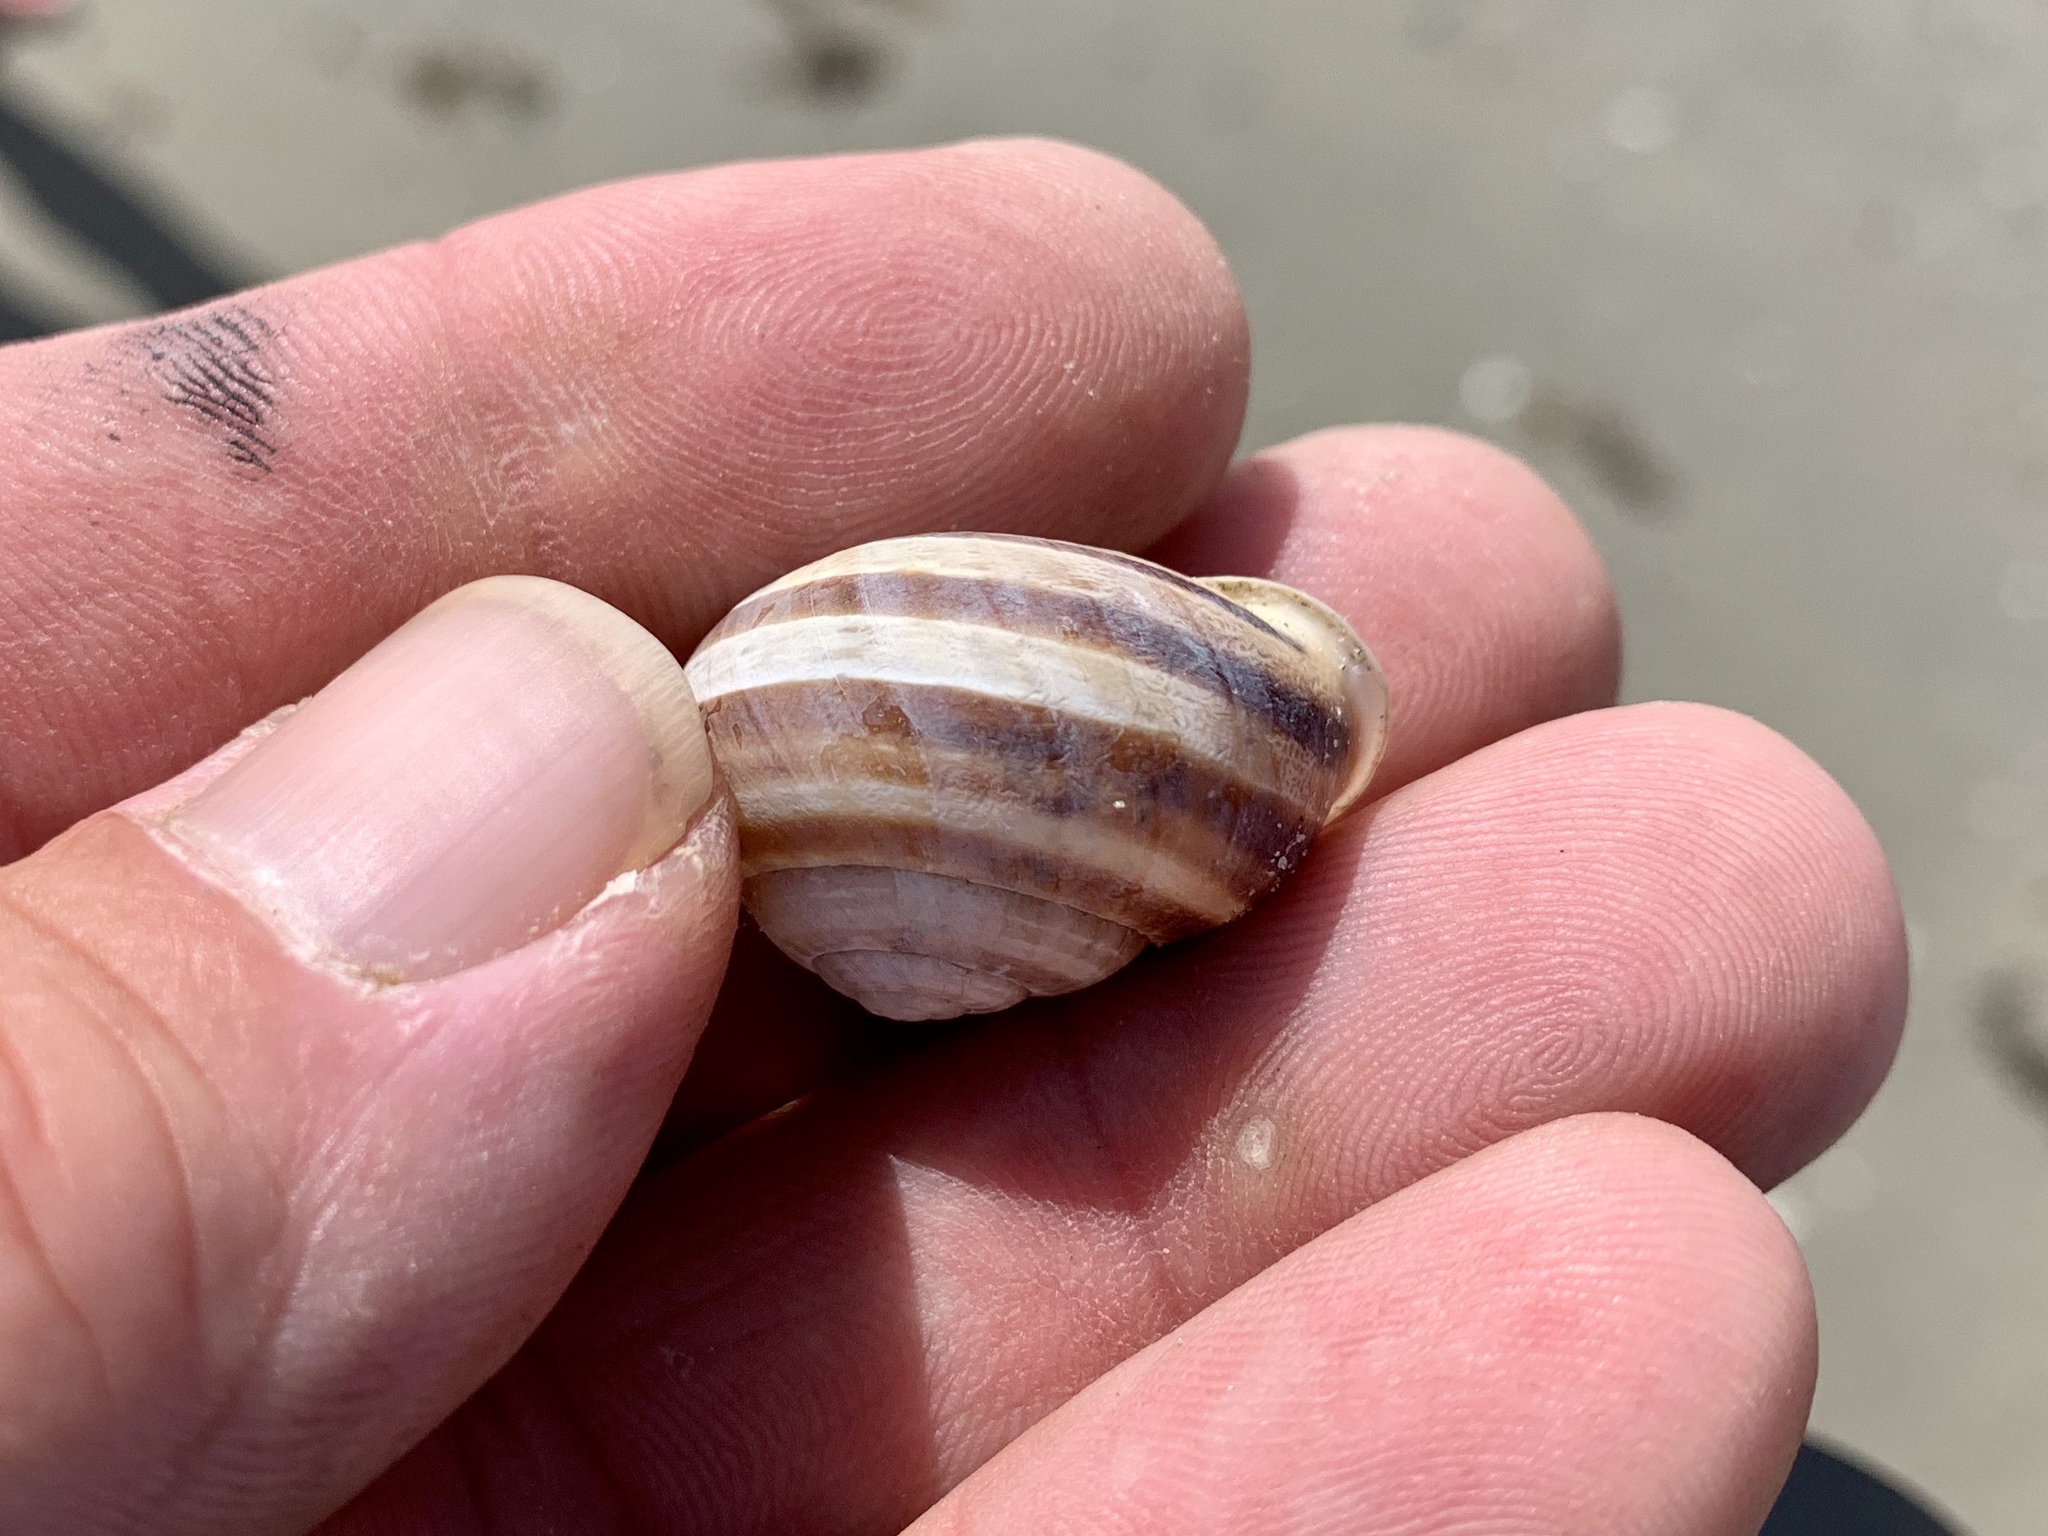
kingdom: Animalia
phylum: Mollusca
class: Gastropoda
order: Stylommatophora
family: Helicidae
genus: Eobania
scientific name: Eobania vermiculata
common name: Chocolateband snail
